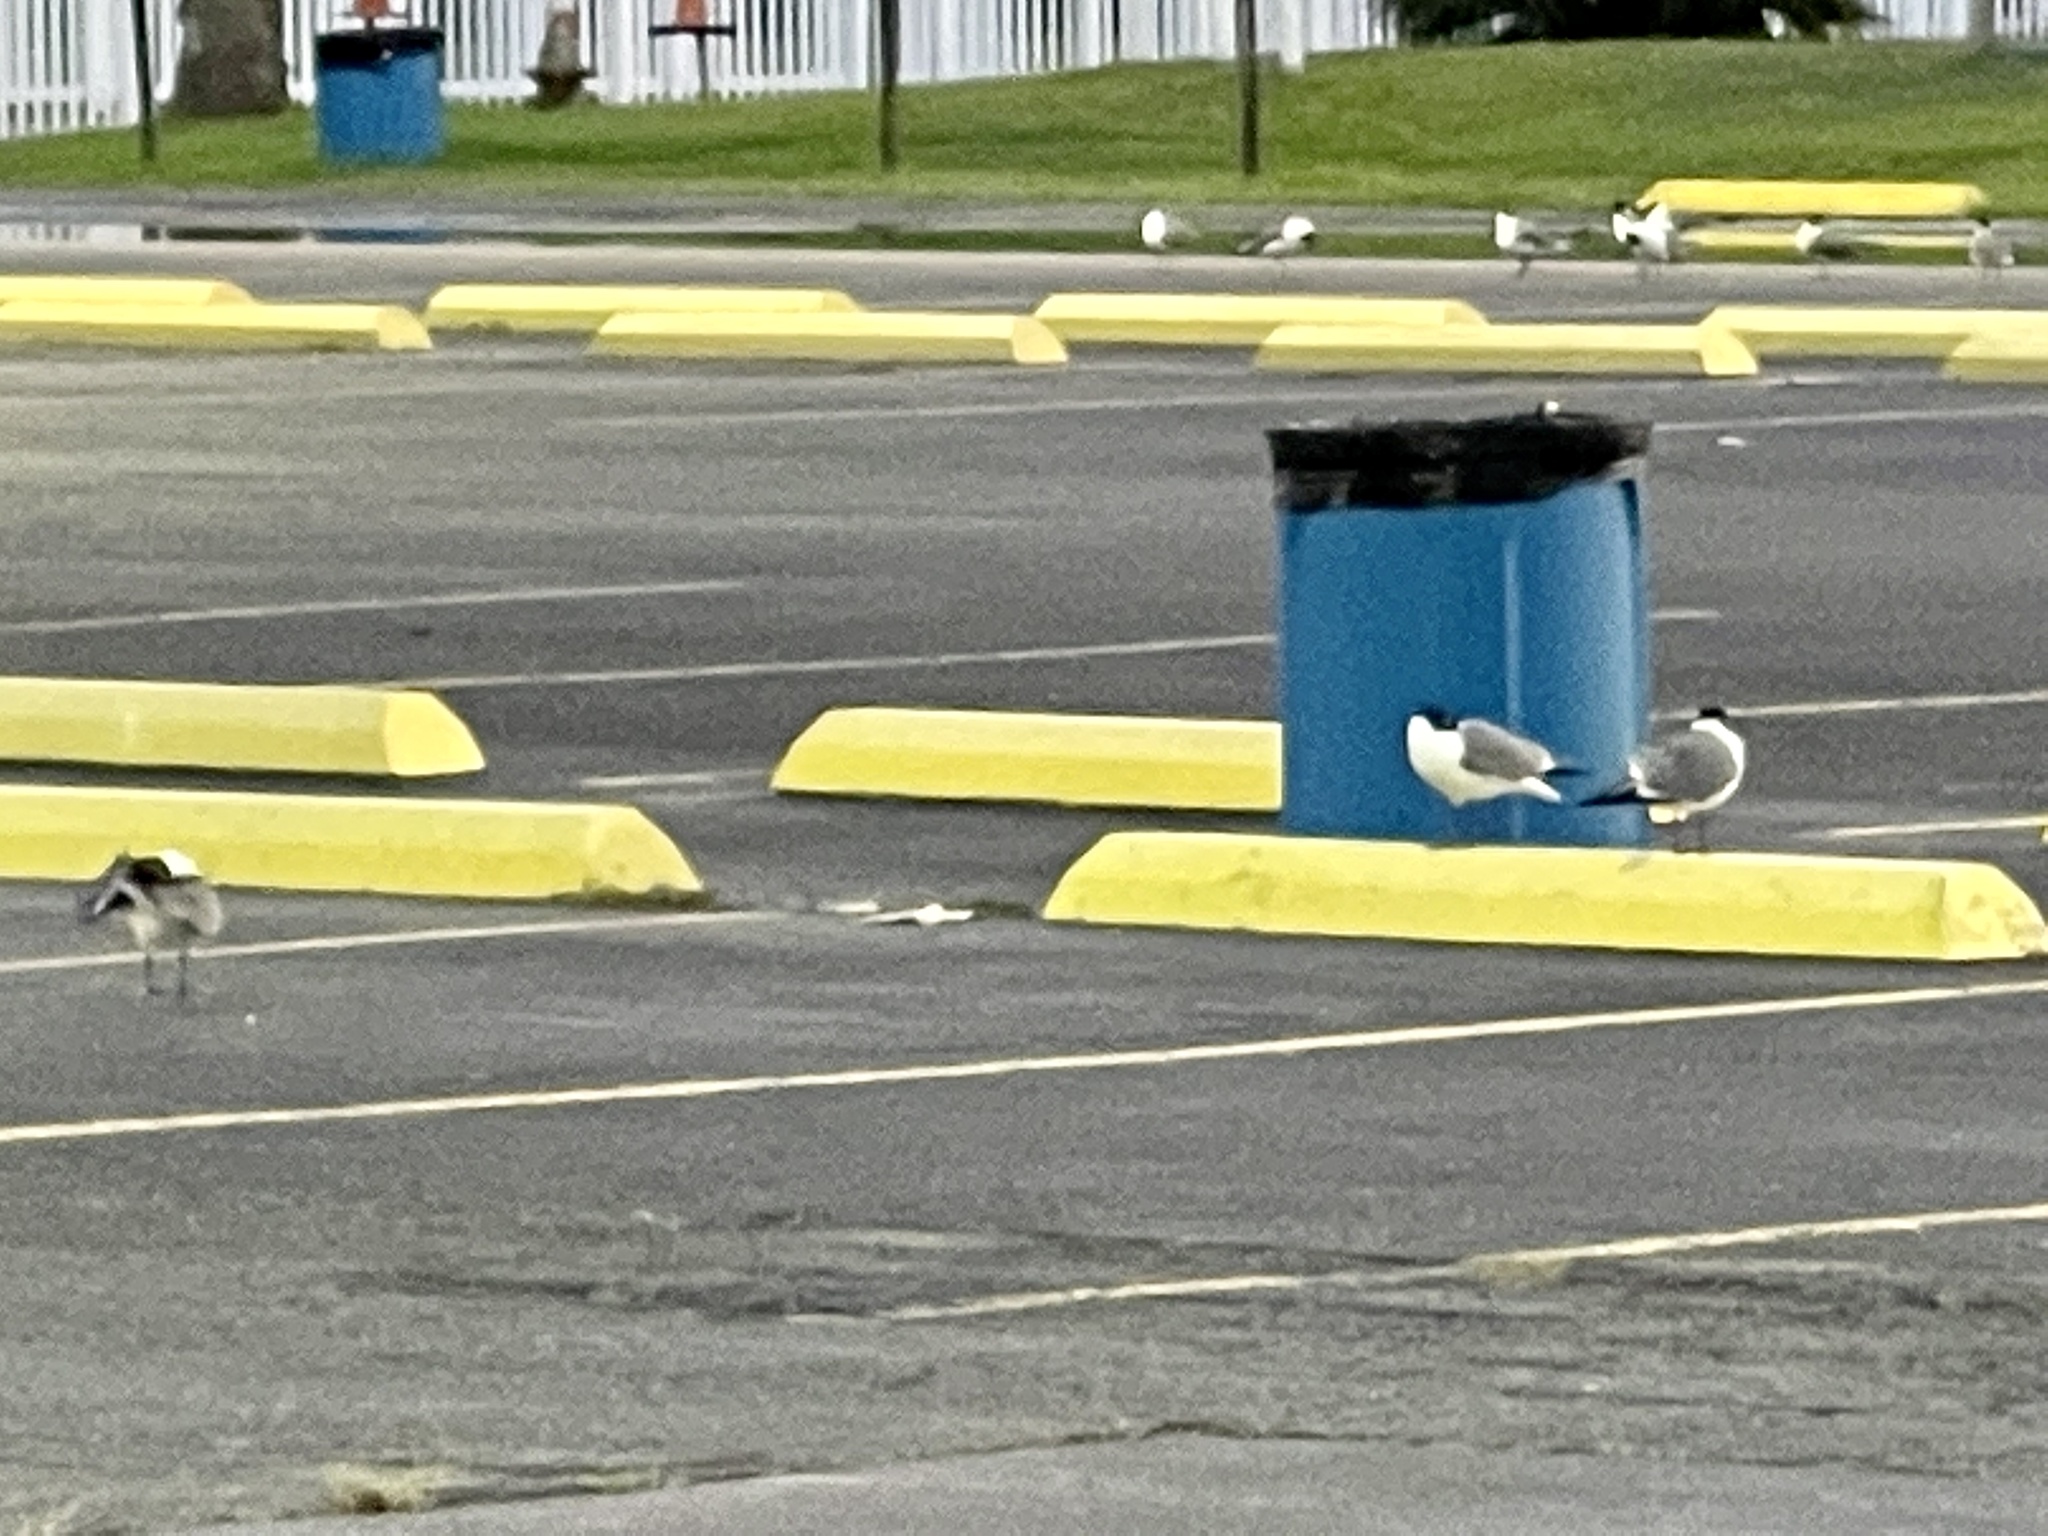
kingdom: Animalia
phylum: Chordata
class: Aves
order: Charadriiformes
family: Laridae
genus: Leucophaeus
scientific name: Leucophaeus atricilla
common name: Laughing gull
